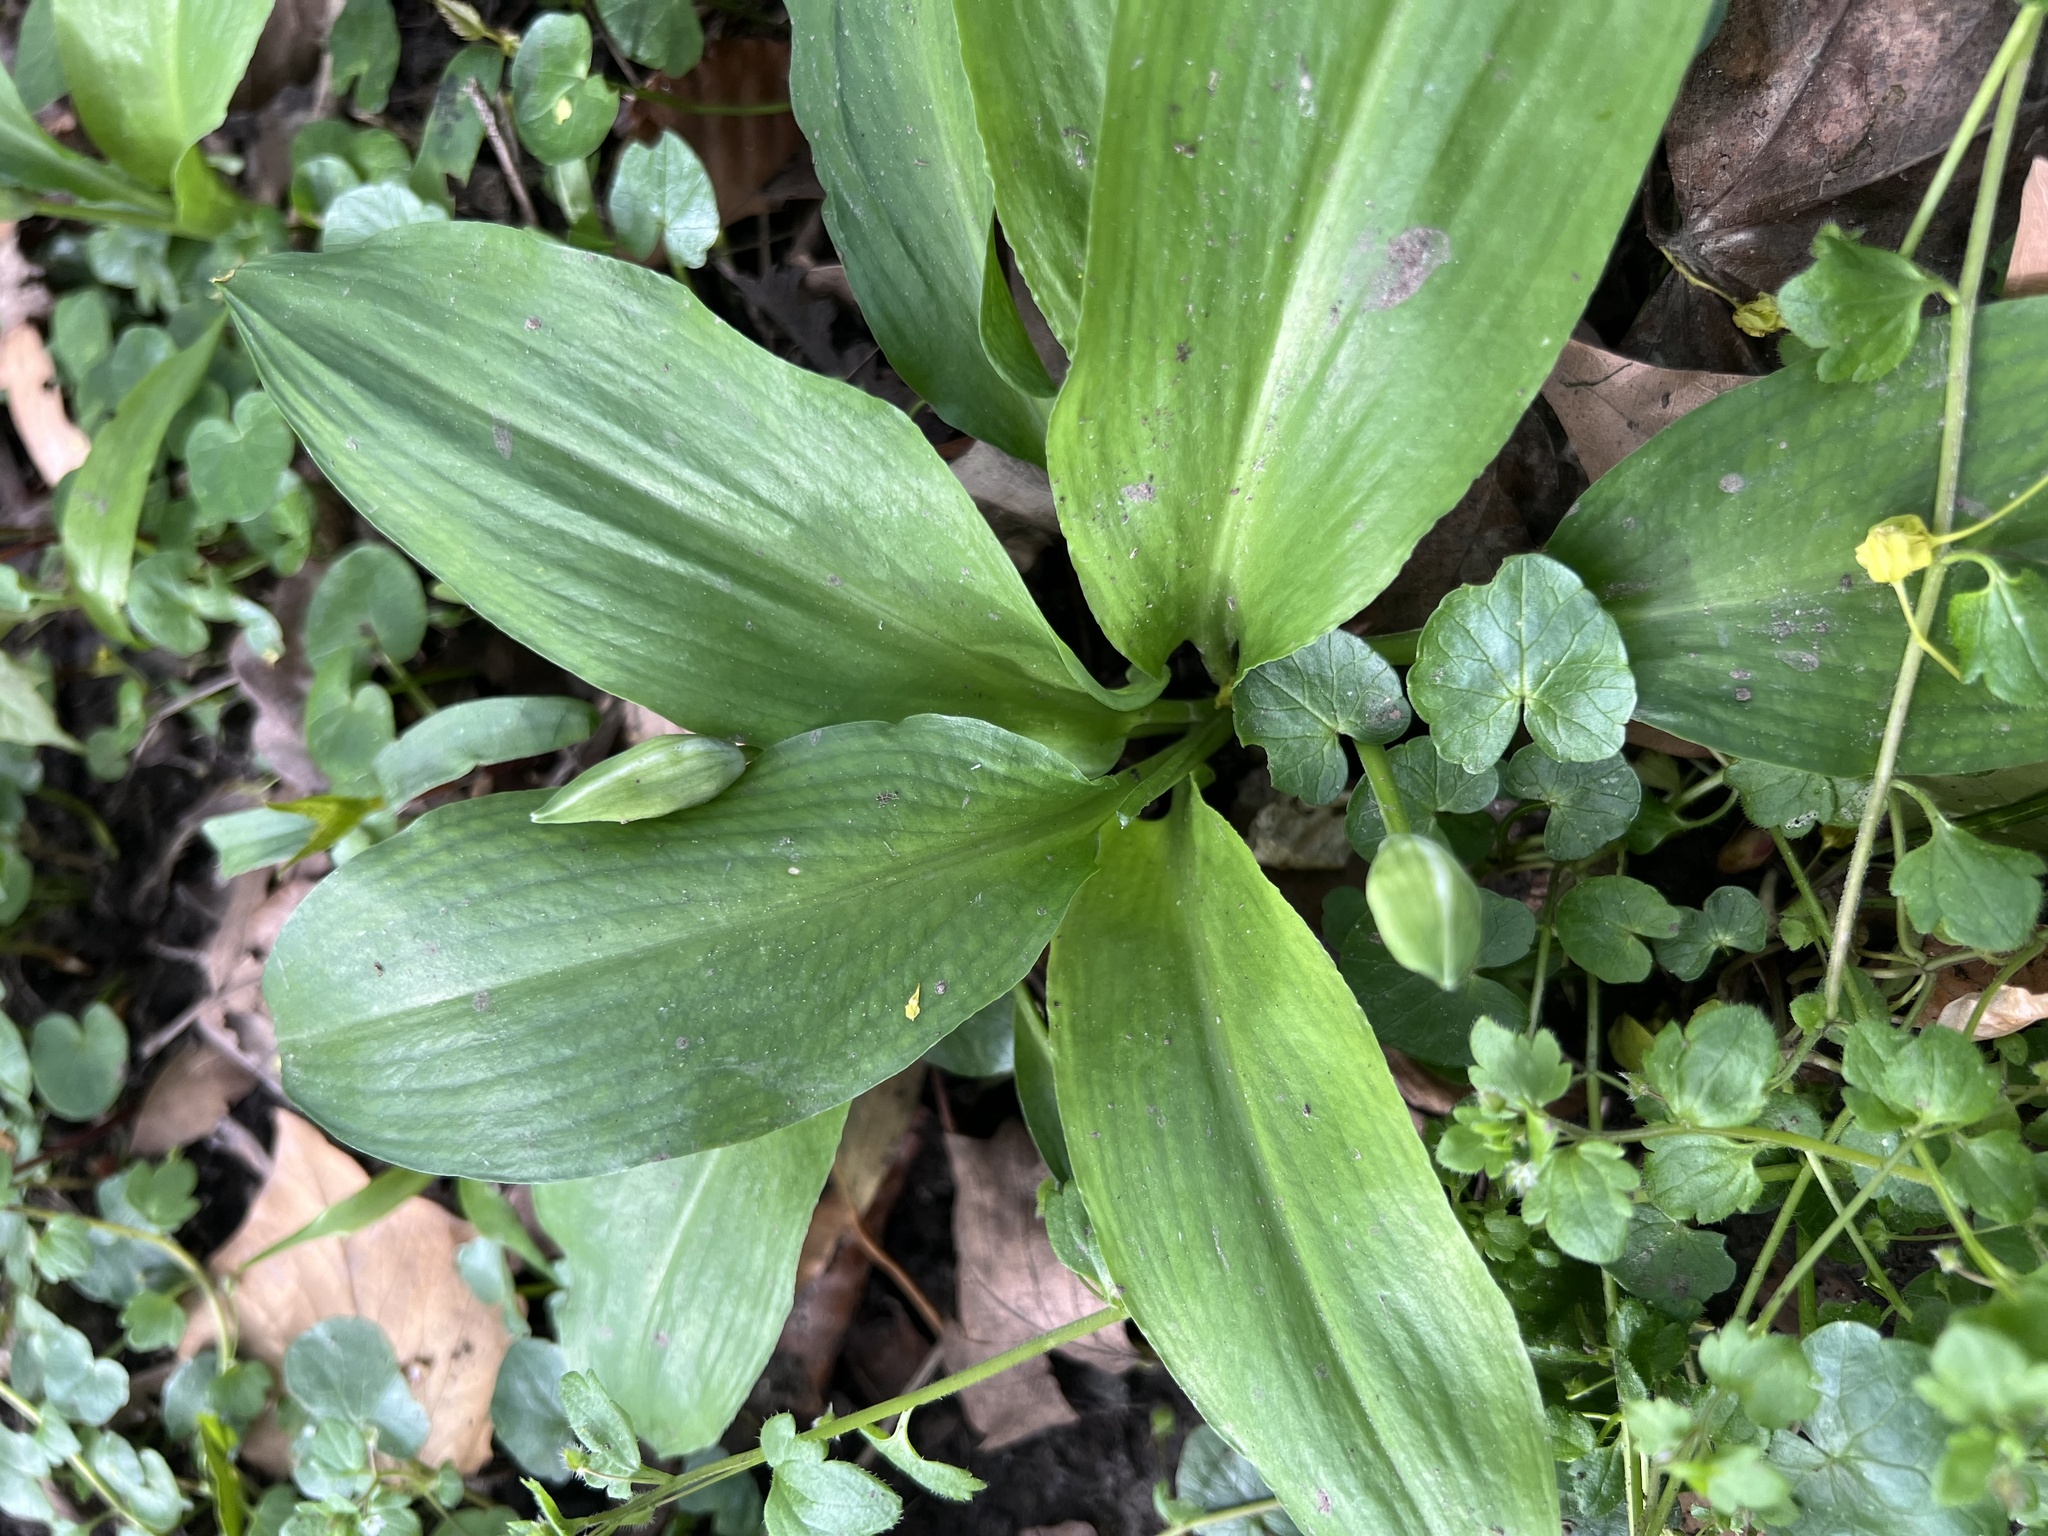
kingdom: Plantae
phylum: Tracheophyta
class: Liliopsida
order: Asparagales
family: Amaryllidaceae
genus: Allium
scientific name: Allium ursinum
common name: Ramsons
